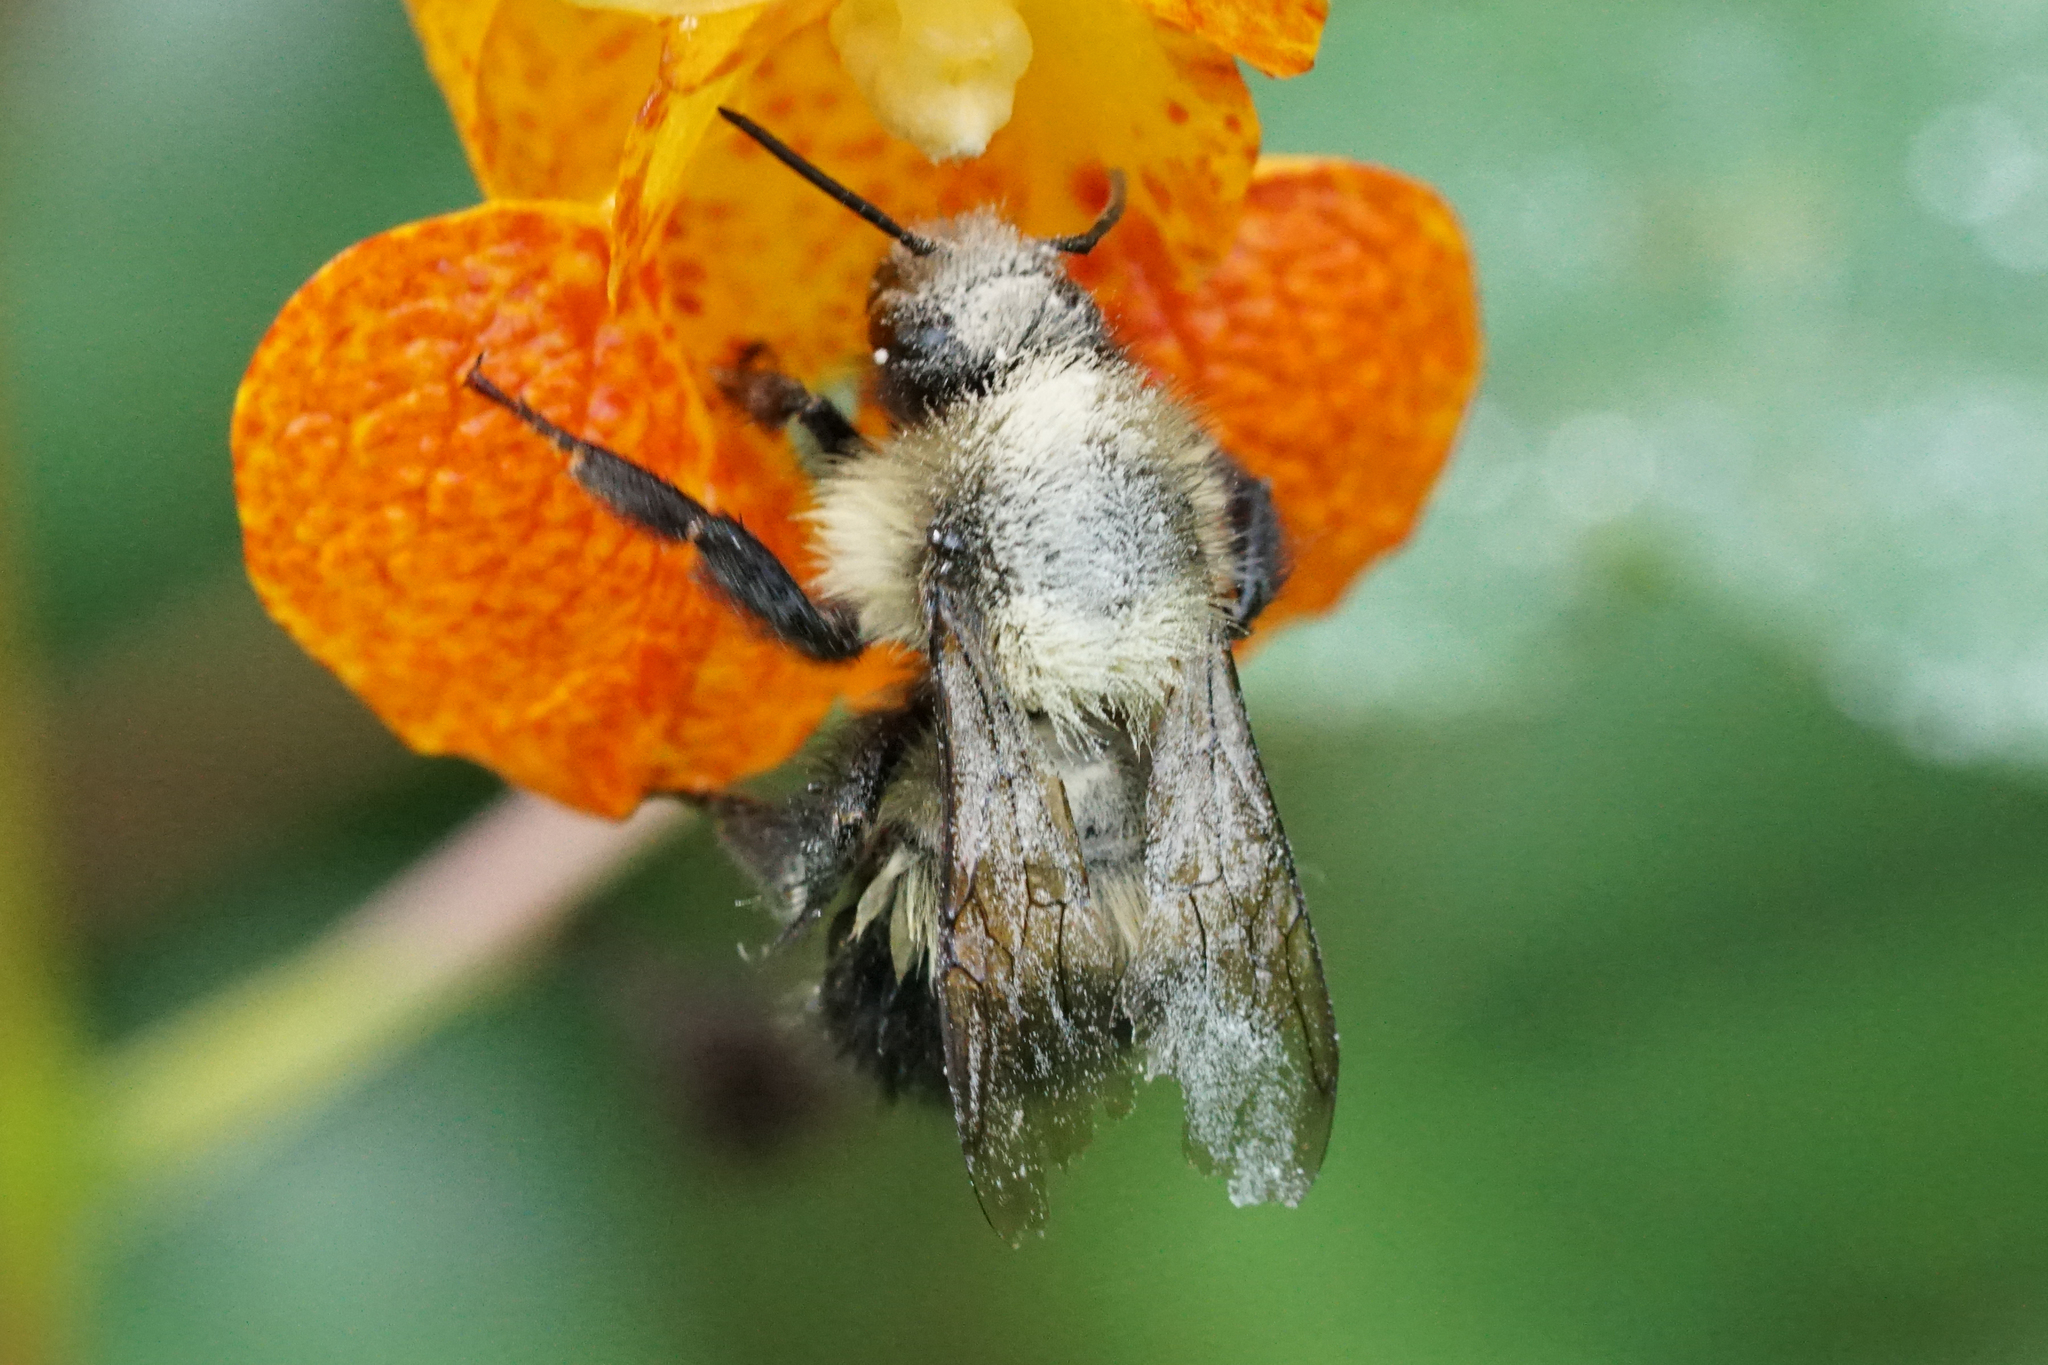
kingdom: Animalia
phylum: Arthropoda
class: Insecta
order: Hymenoptera
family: Apidae
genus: Bombus
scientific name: Bombus vagans
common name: Half-black bumble bee
